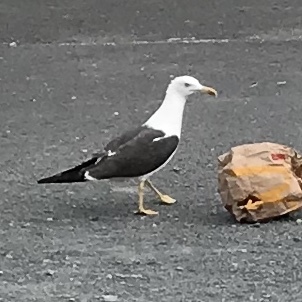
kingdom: Animalia
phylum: Chordata
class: Aves
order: Charadriiformes
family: Laridae
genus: Larus
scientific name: Larus fuscus
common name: Lesser black-backed gull
